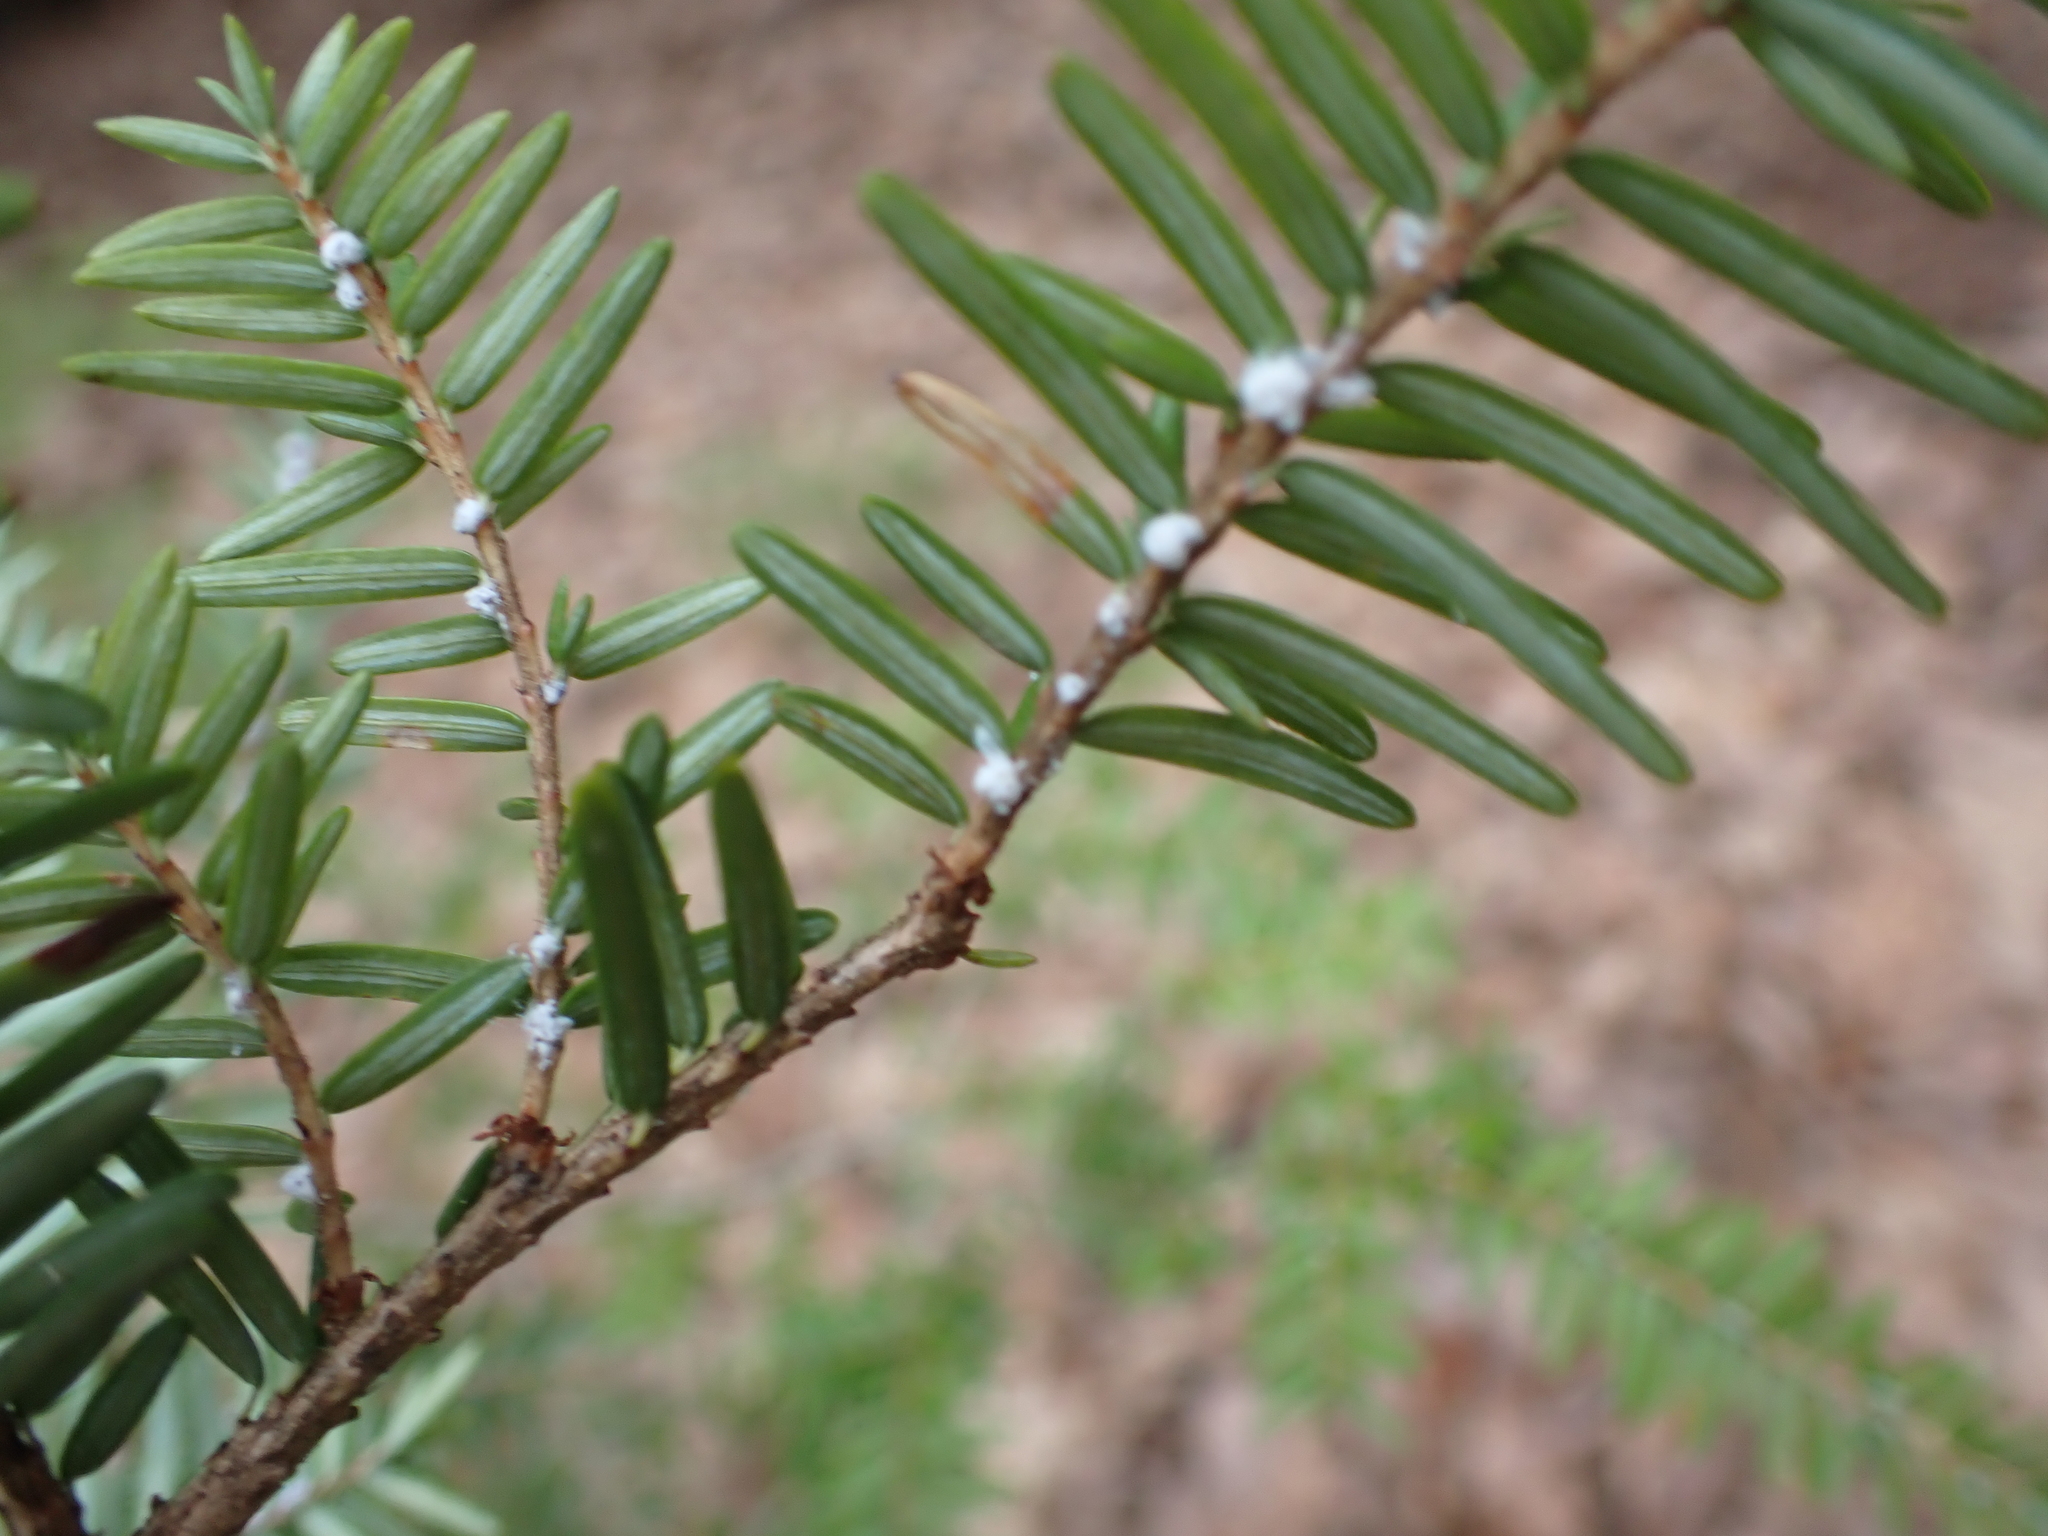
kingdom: Animalia
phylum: Arthropoda
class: Insecta
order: Hemiptera
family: Adelgidae
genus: Adelges
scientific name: Adelges tsugae
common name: Hemlock woolly adelgid
